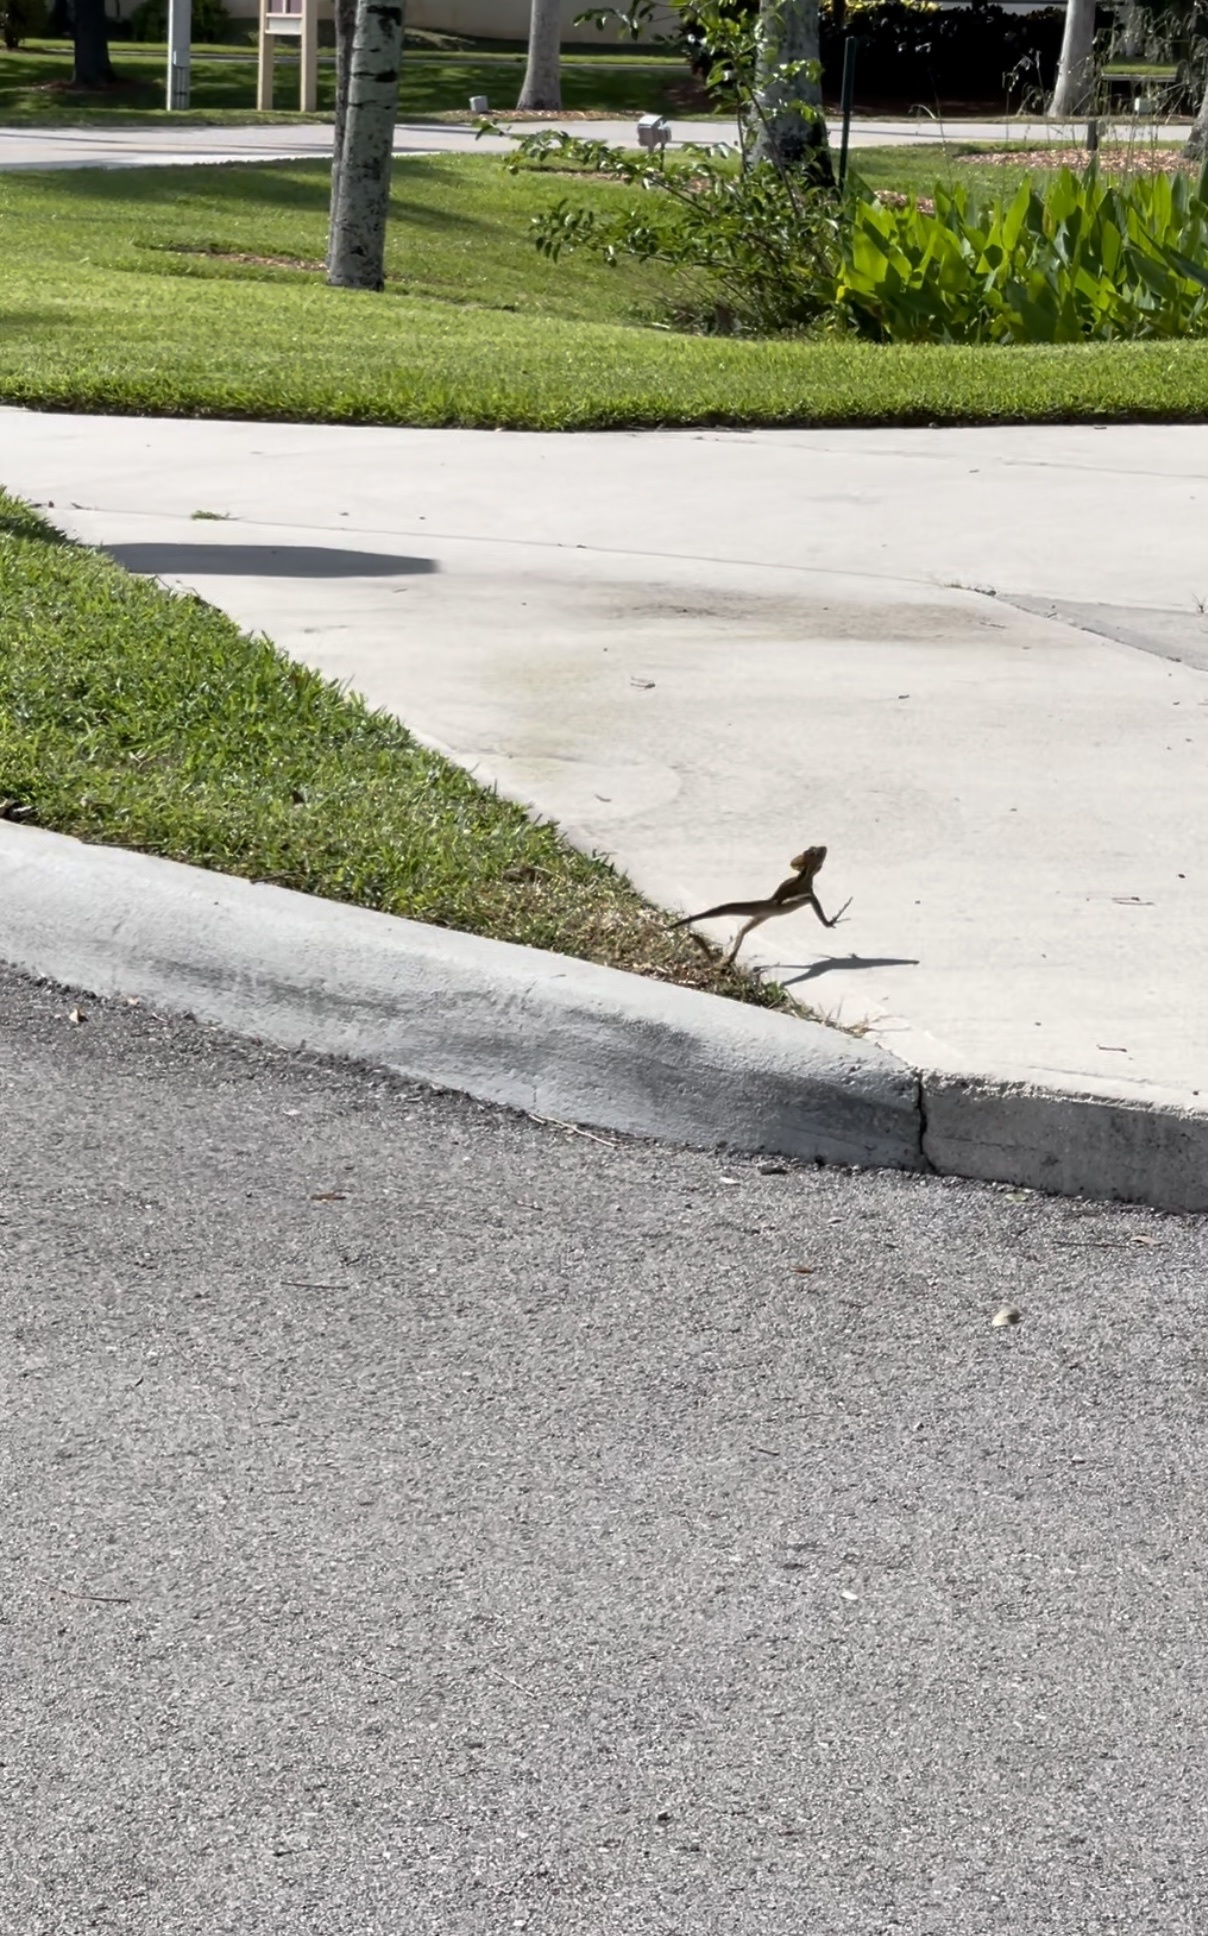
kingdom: Animalia
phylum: Chordata
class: Squamata
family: Corytophanidae
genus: Basiliscus
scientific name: Basiliscus vittatus
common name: Brown basilisk
